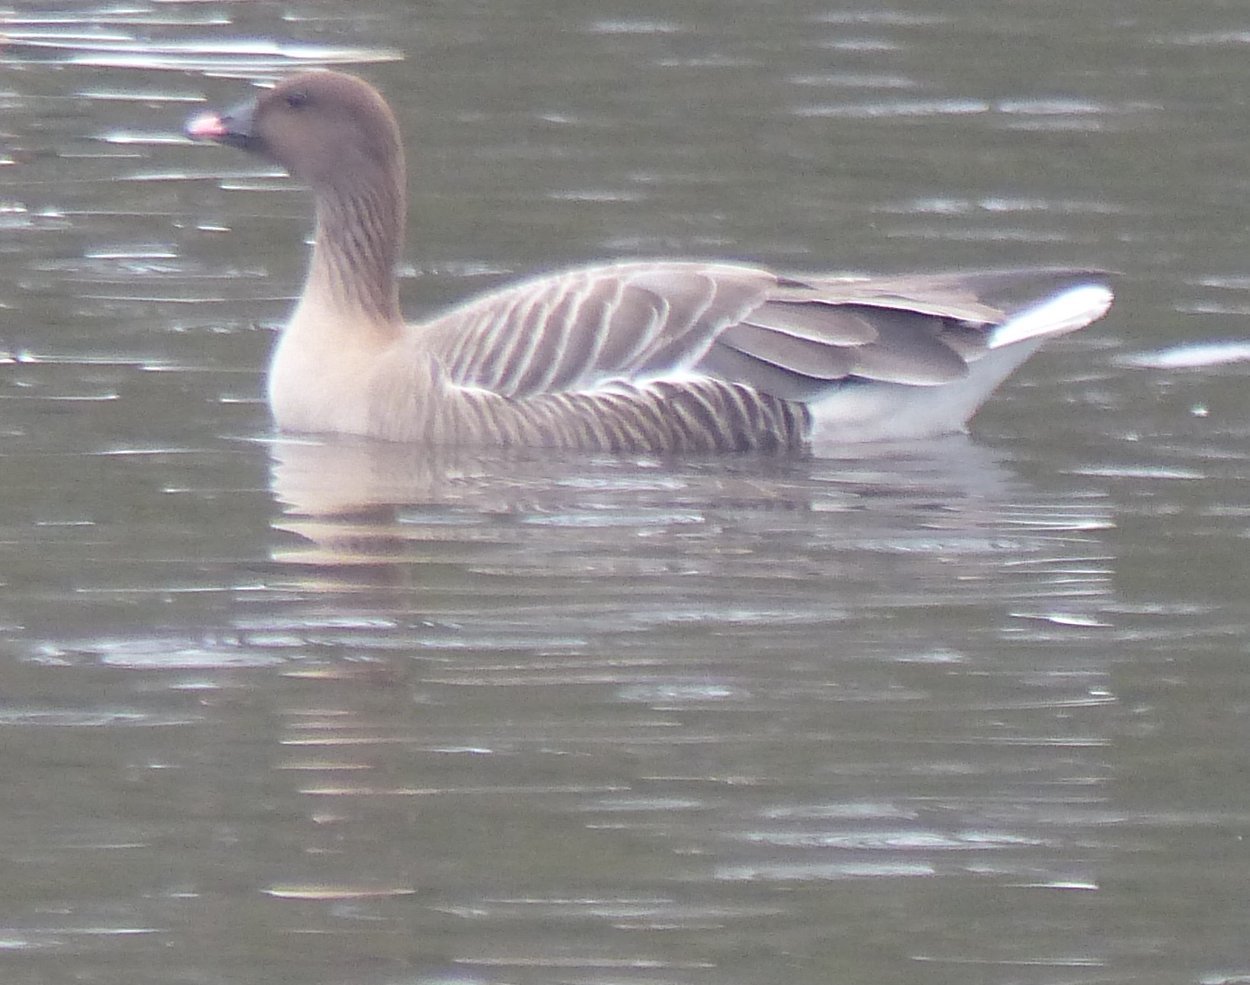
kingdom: Animalia
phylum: Chordata
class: Aves
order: Anseriformes
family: Anatidae
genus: Anser
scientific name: Anser brachyrhynchus
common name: Pink-footed goose
